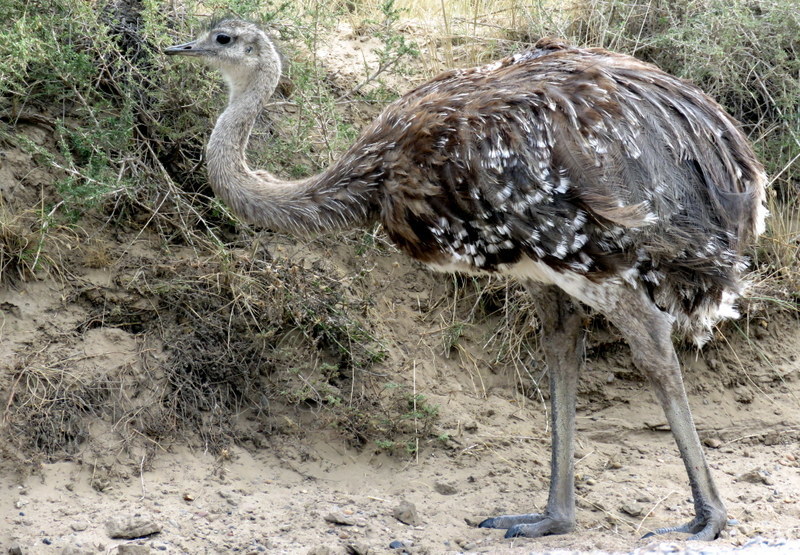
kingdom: Animalia
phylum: Chordata
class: Aves
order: Rheiformes
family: Rheidae
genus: Rhea
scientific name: Rhea pennata
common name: Lesser rhea
